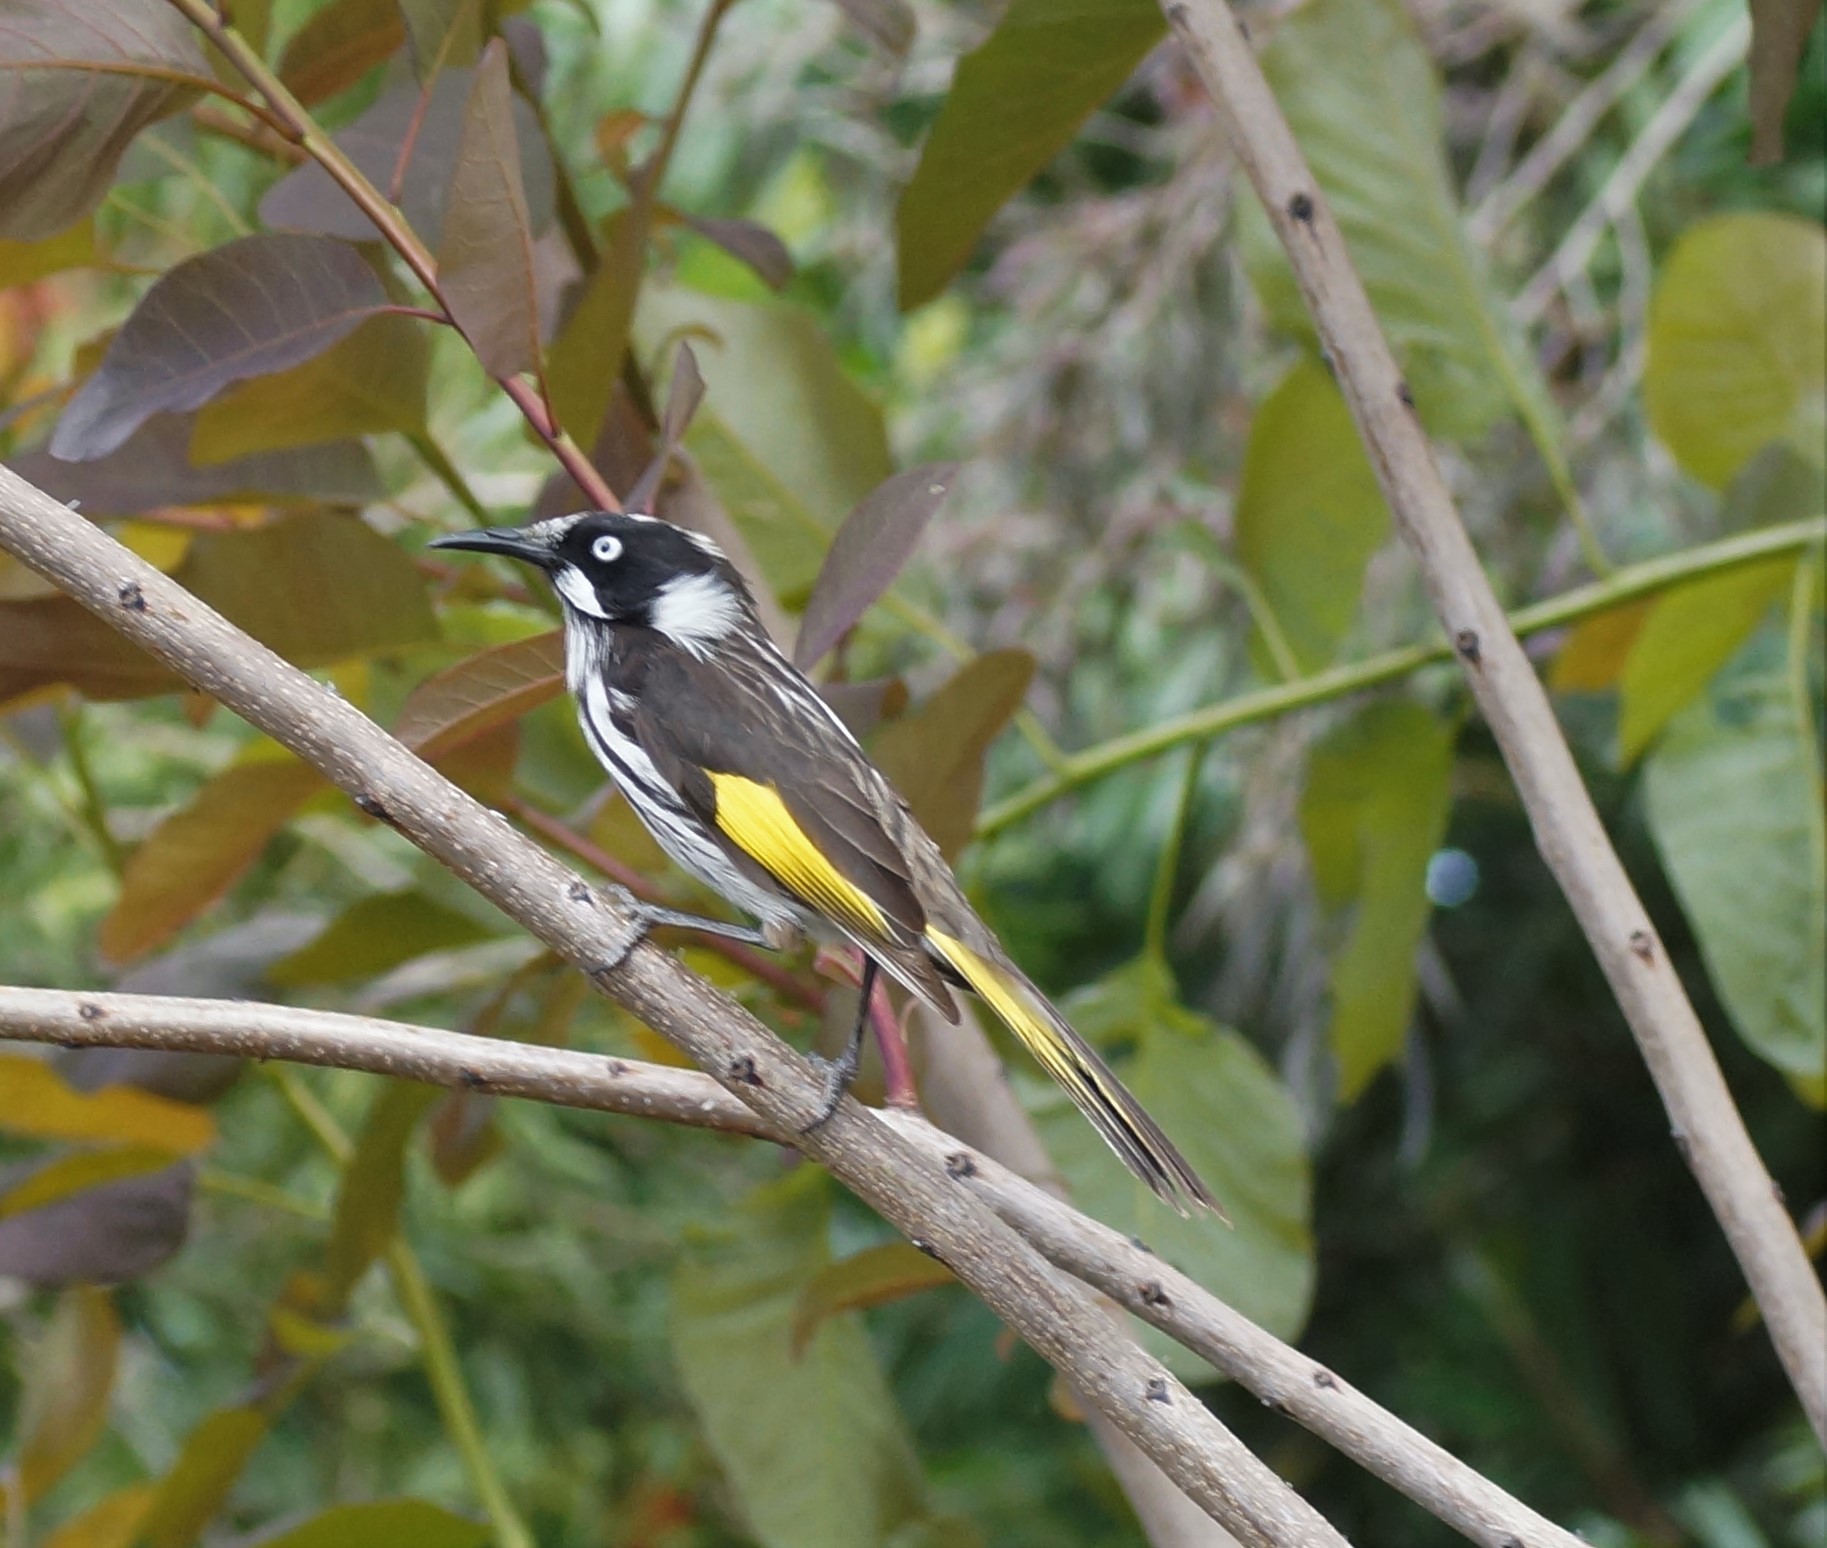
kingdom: Animalia
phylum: Chordata
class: Aves
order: Passeriformes
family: Meliphagidae
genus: Phylidonyris
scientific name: Phylidonyris novaehollandiae
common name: New holland honeyeater
